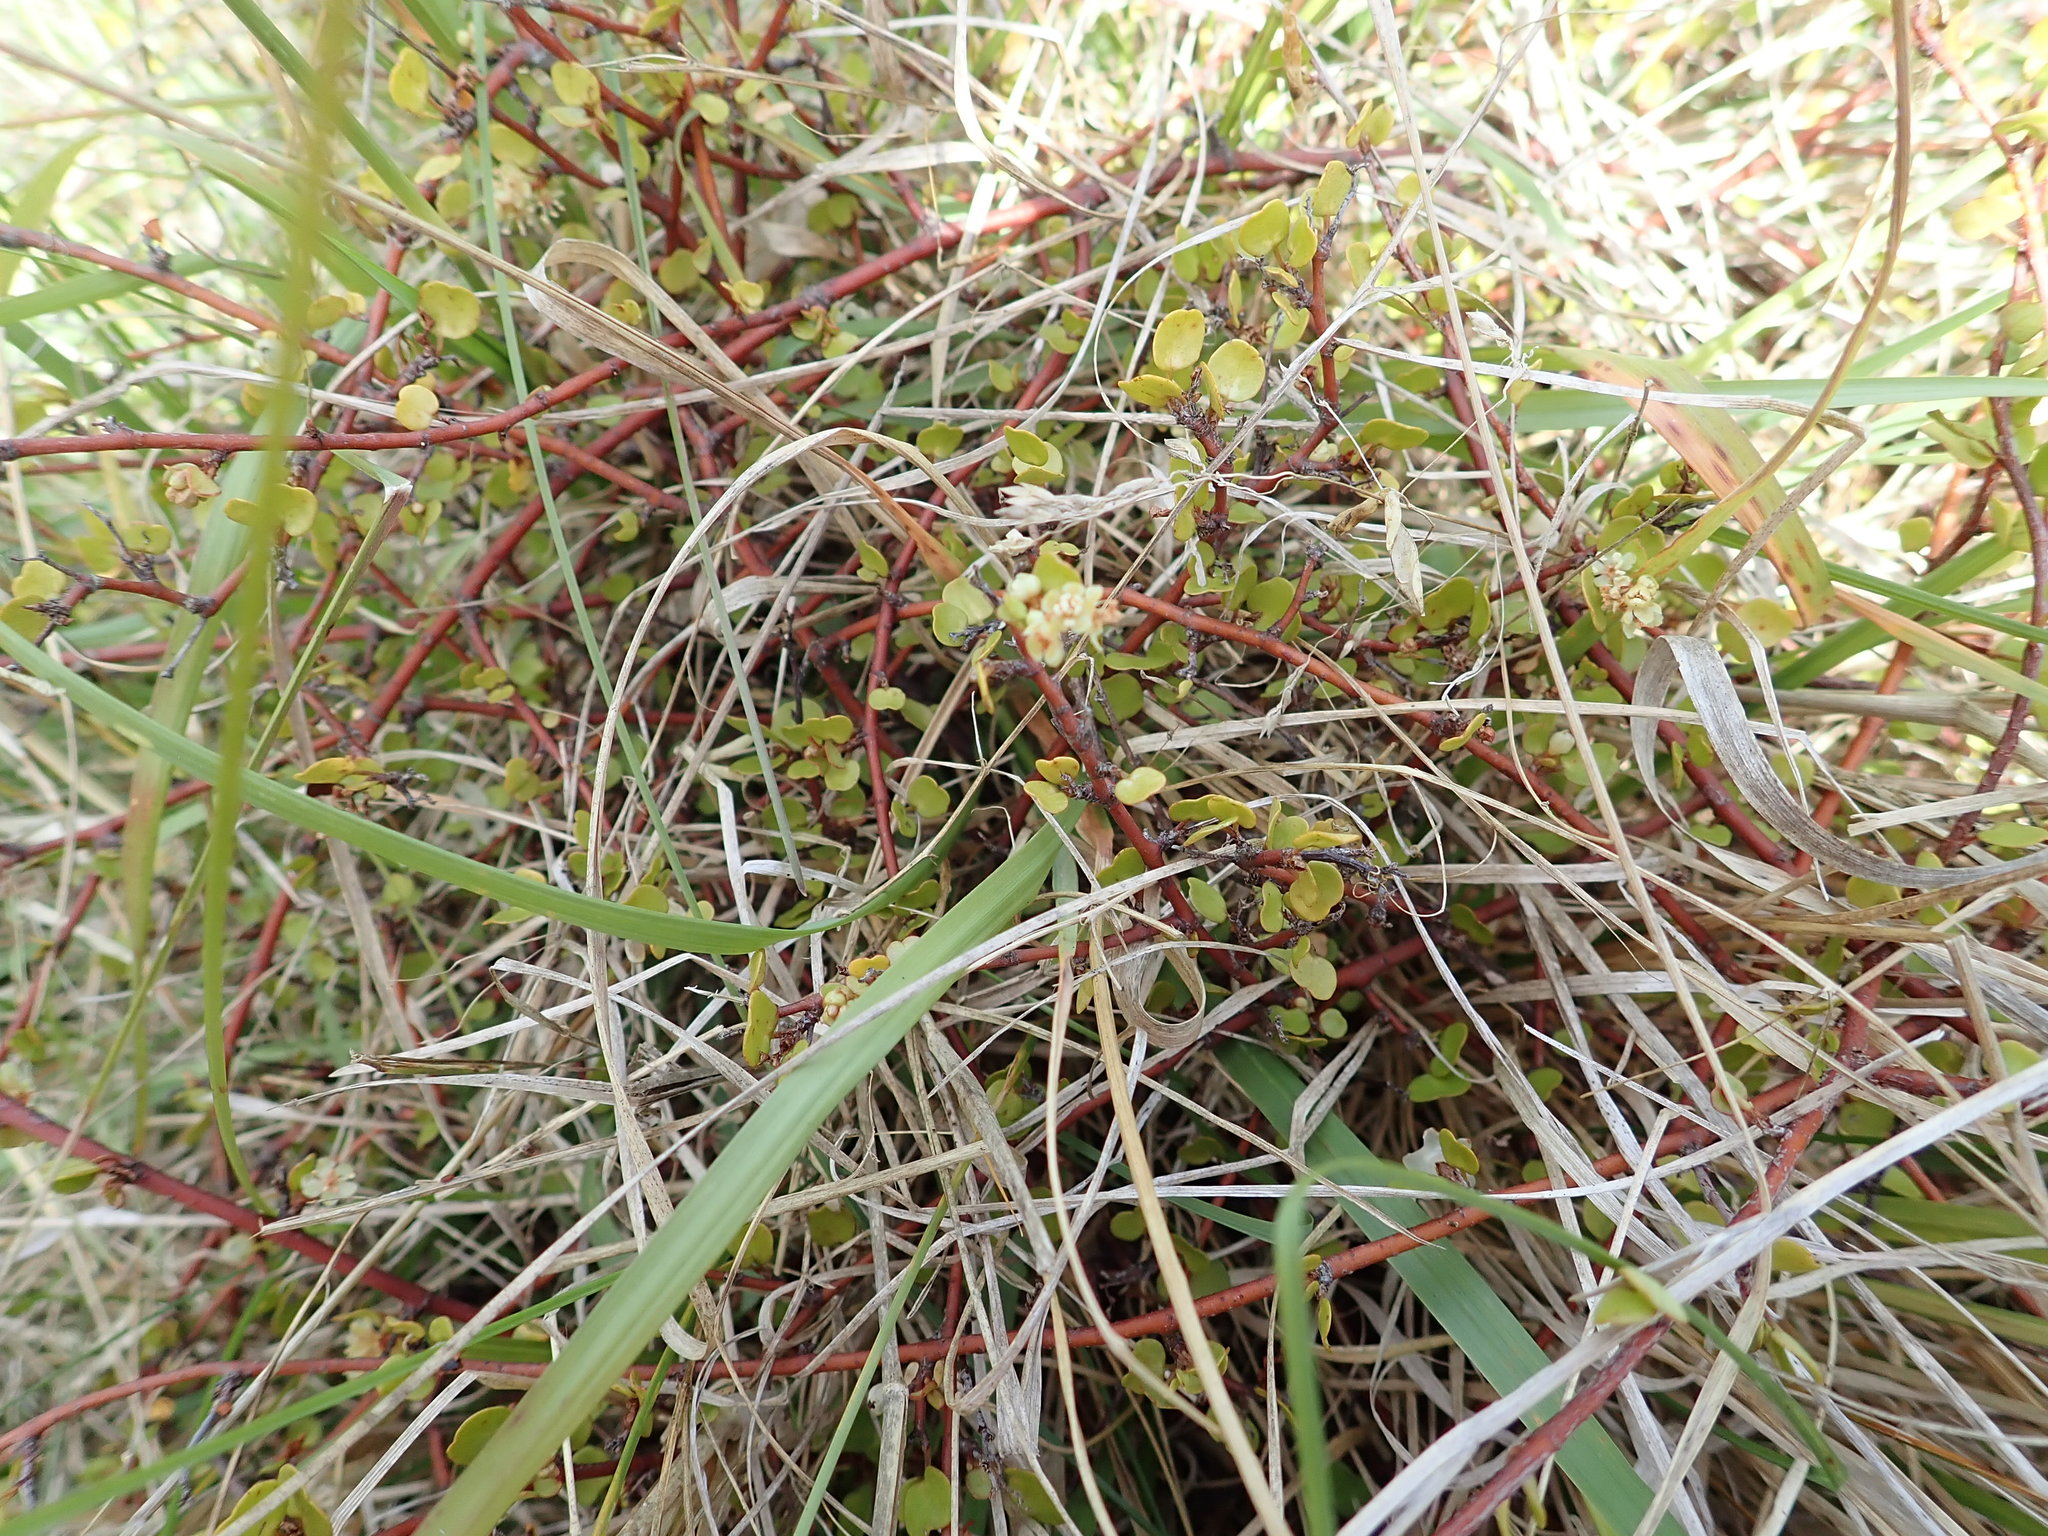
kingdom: Plantae
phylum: Tracheophyta
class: Magnoliopsida
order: Caryophyllales
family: Polygonaceae
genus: Muehlenbeckia
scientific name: Muehlenbeckia complexa
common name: Wireplant
